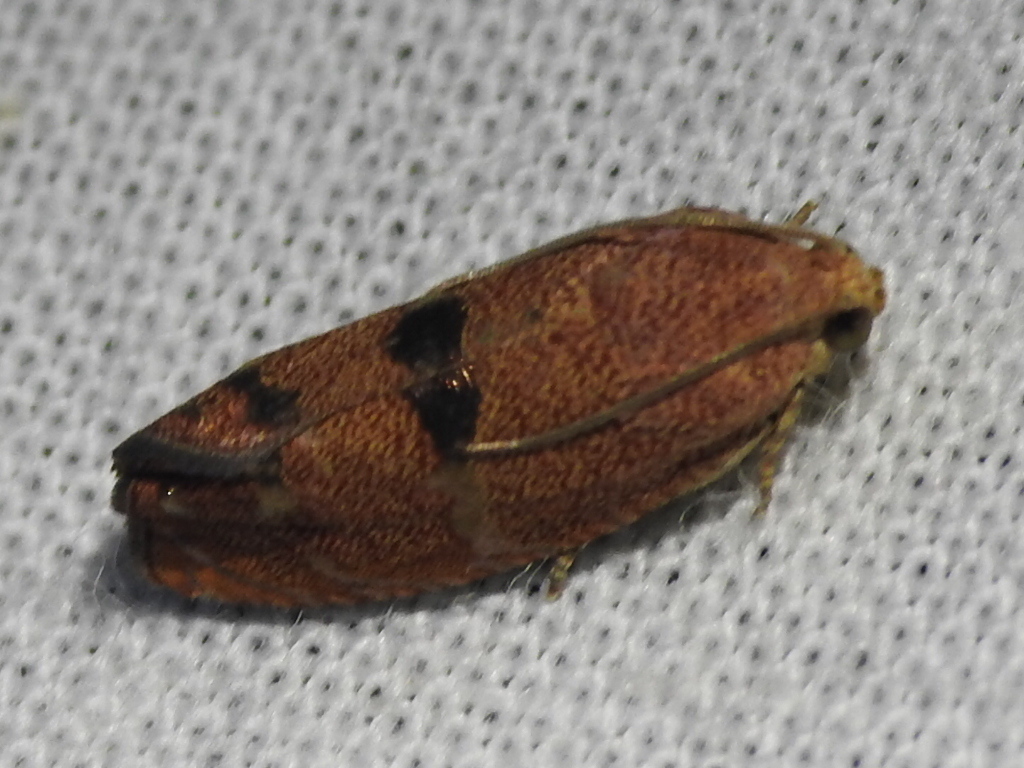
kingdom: Animalia
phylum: Arthropoda
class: Insecta
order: Lepidoptera
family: Tortricidae
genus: Cydia
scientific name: Cydia latiferreana
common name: Filbertworm moth
